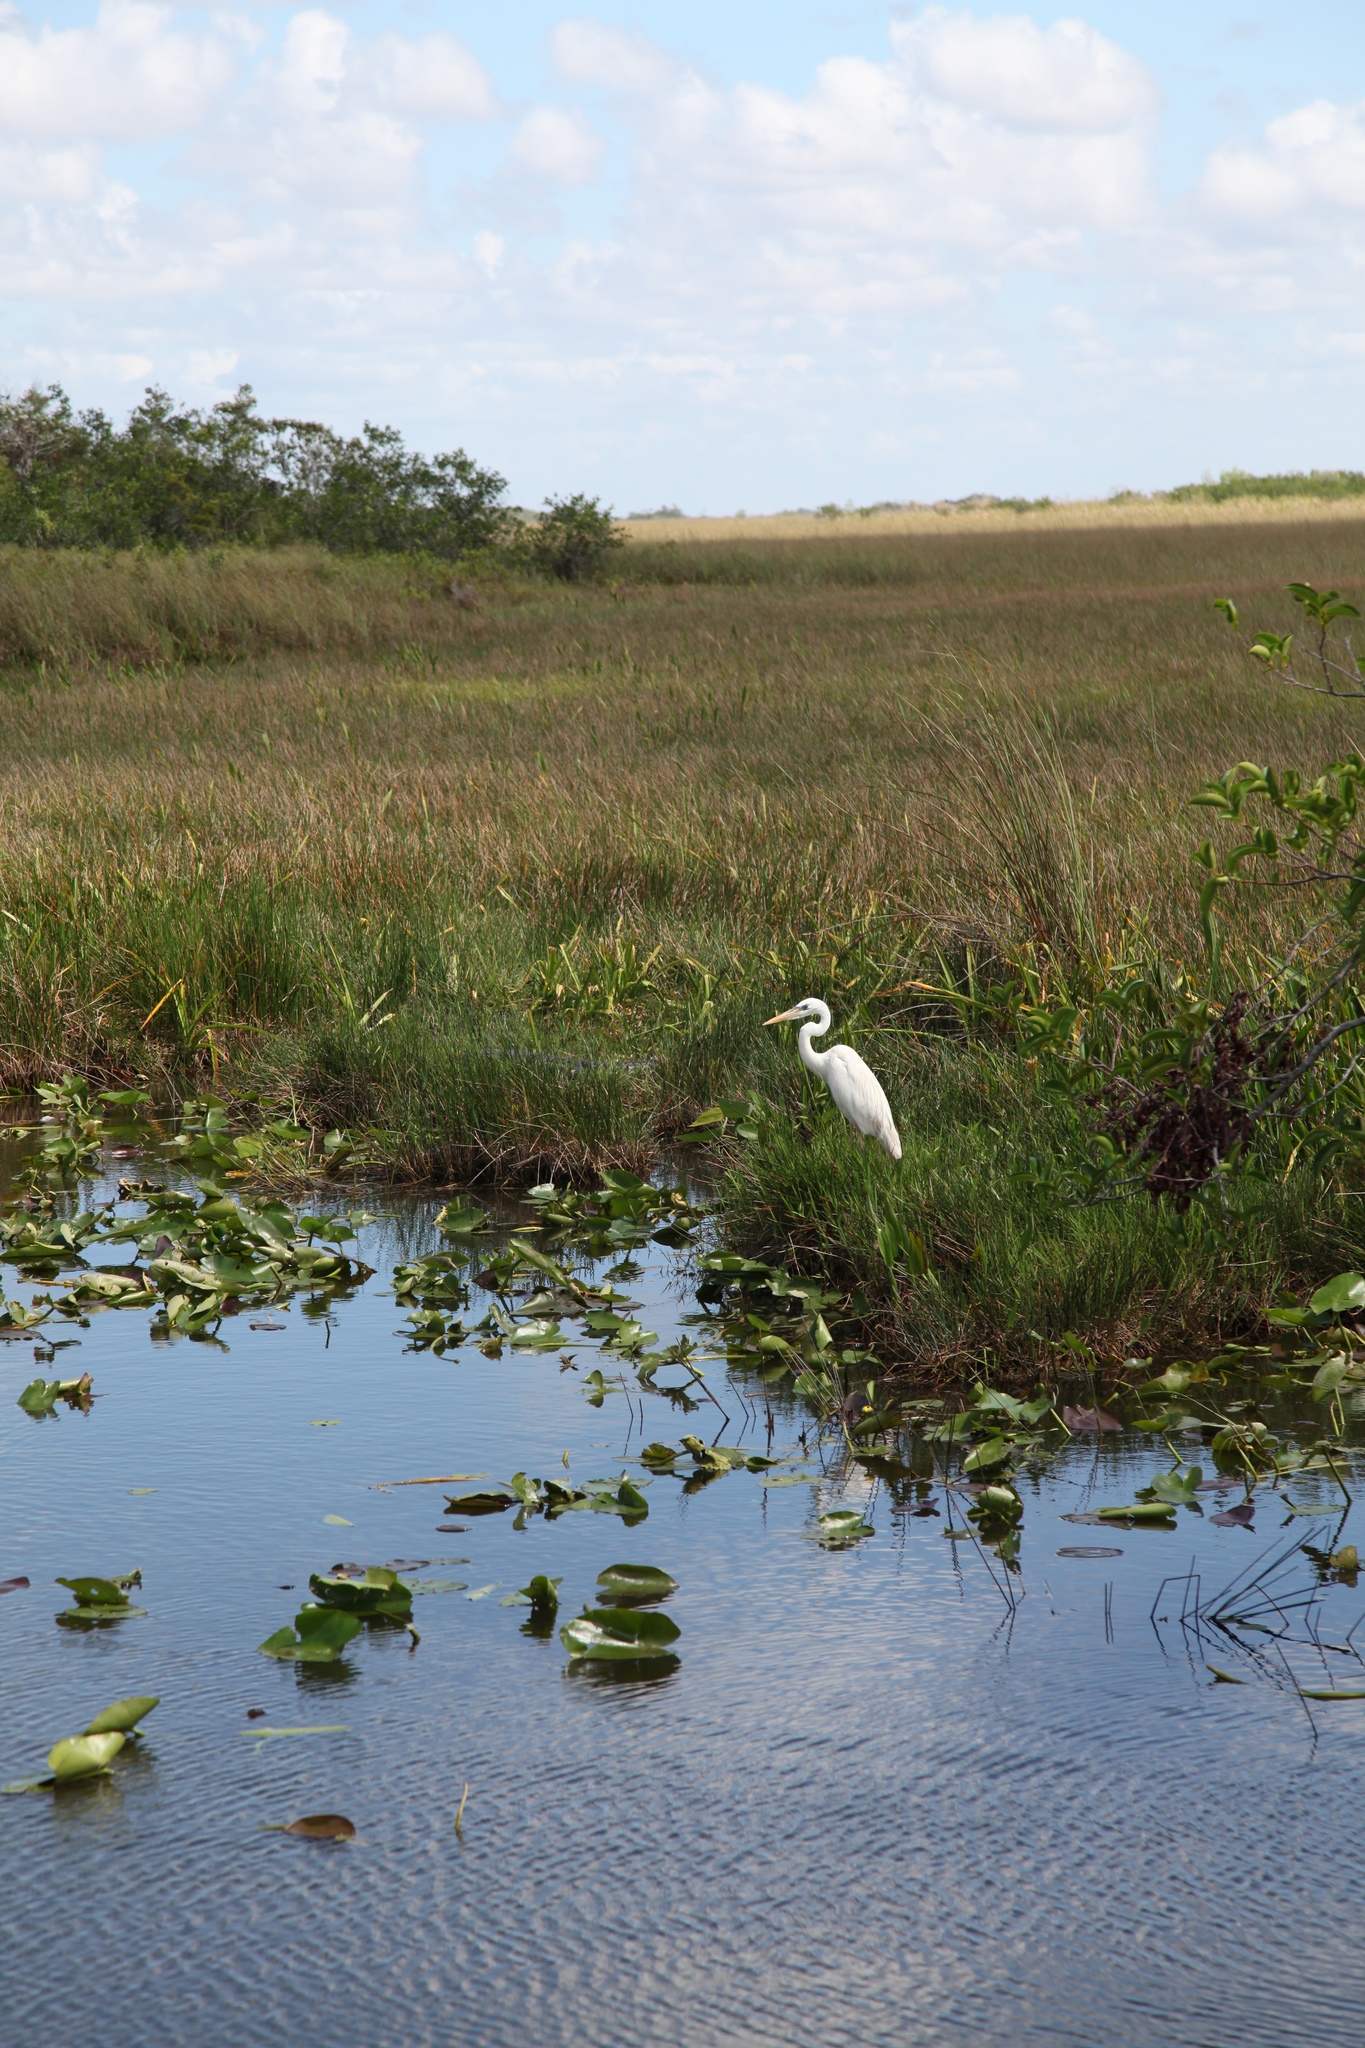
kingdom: Animalia
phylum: Chordata
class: Aves
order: Pelecaniformes
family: Ardeidae
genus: Ardea
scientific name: Ardea herodias
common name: Great blue heron
